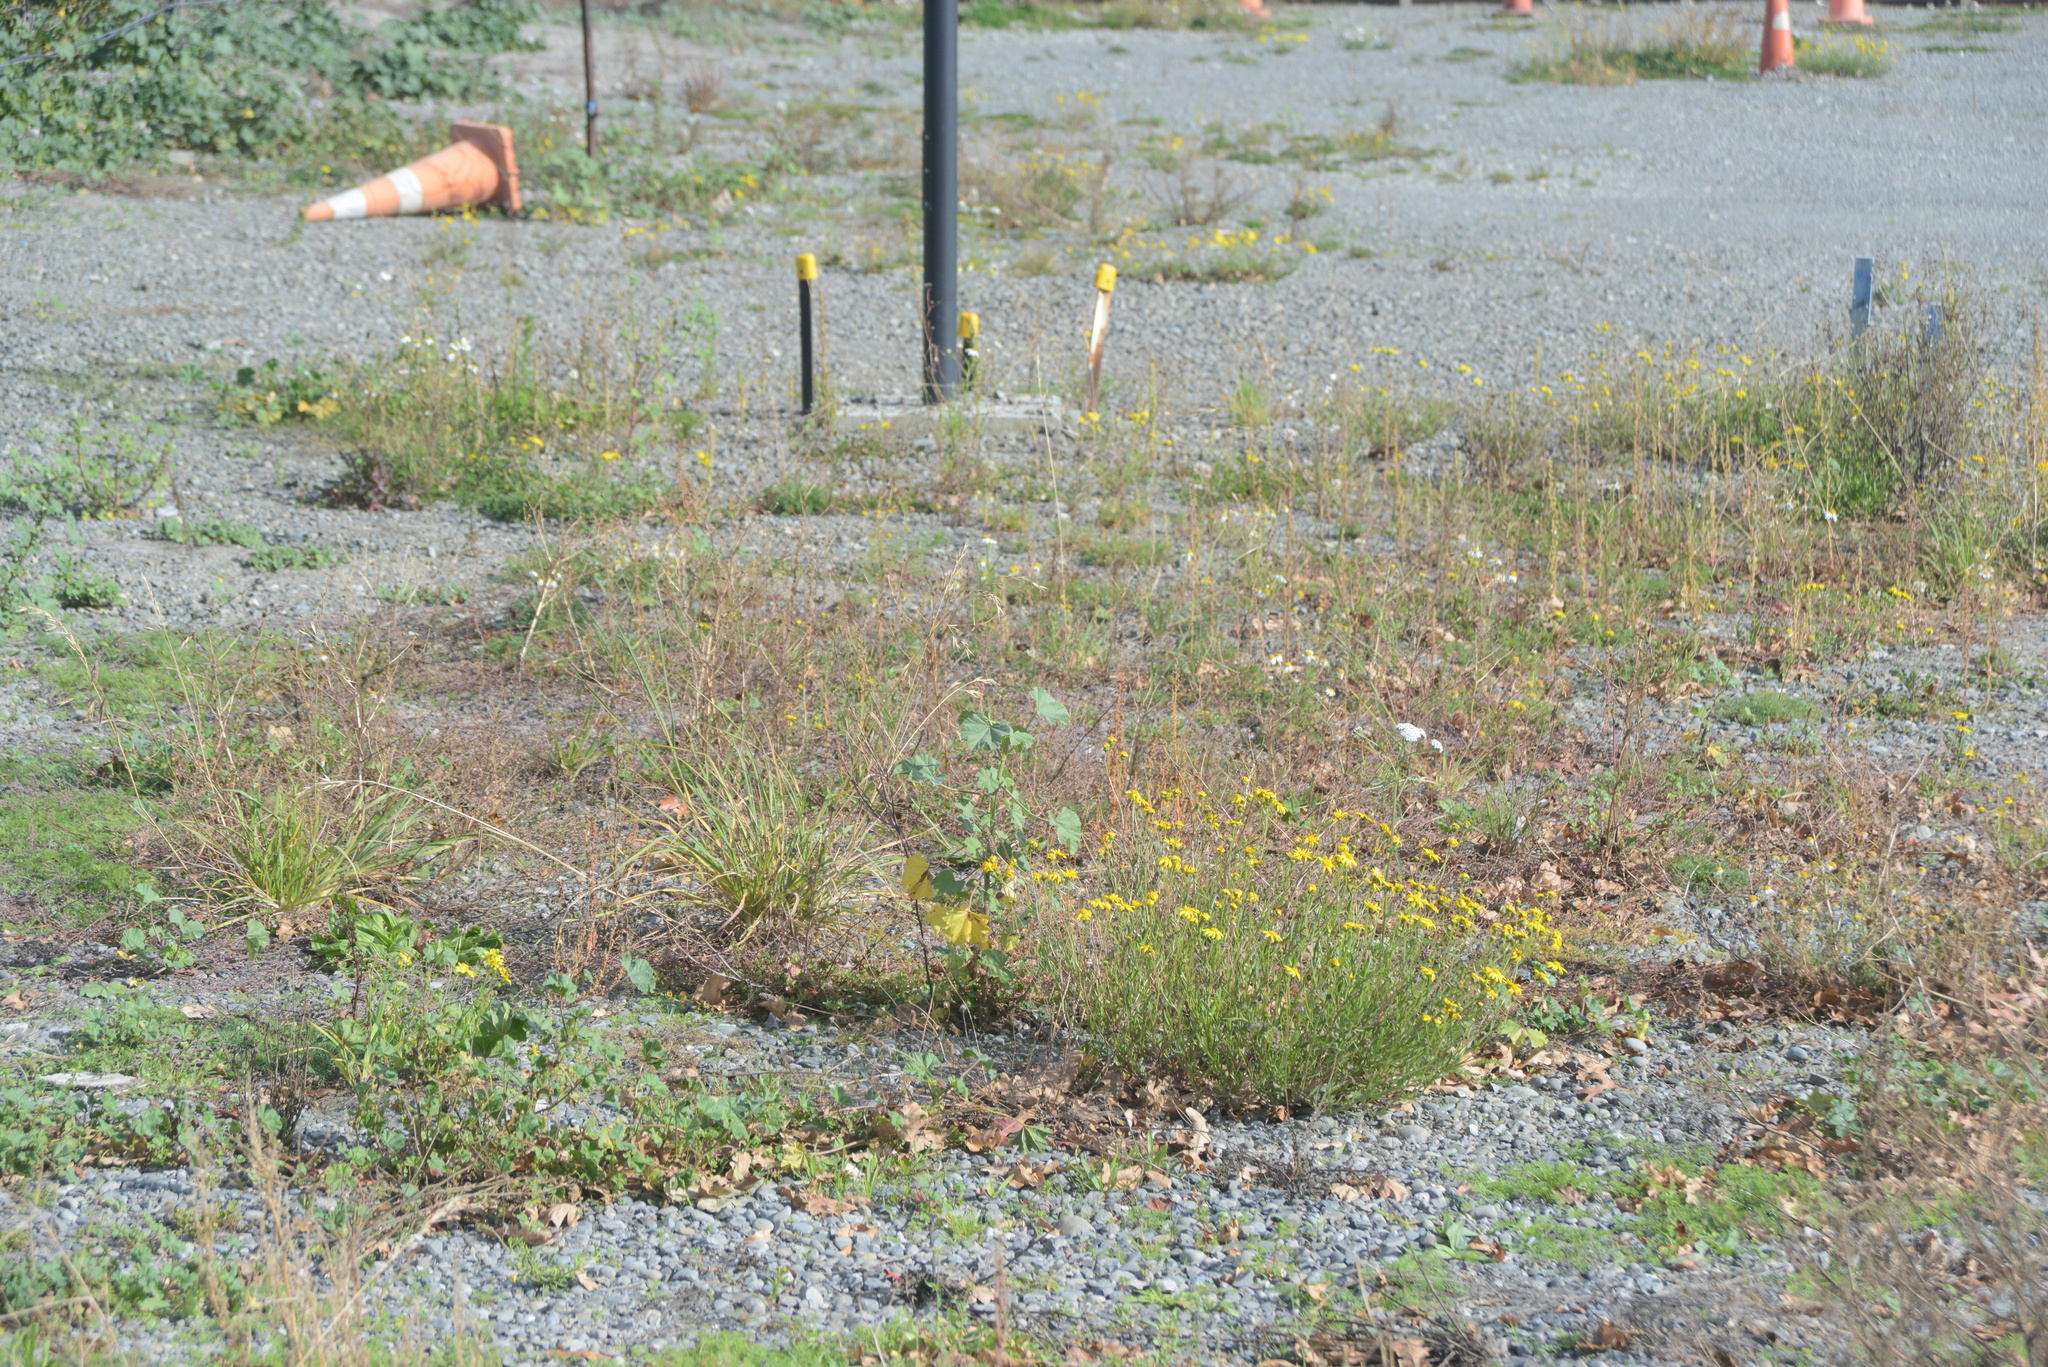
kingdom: Plantae
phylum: Tracheophyta
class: Magnoliopsida
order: Asterales
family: Asteraceae
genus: Senecio
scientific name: Senecio skirrhodon
